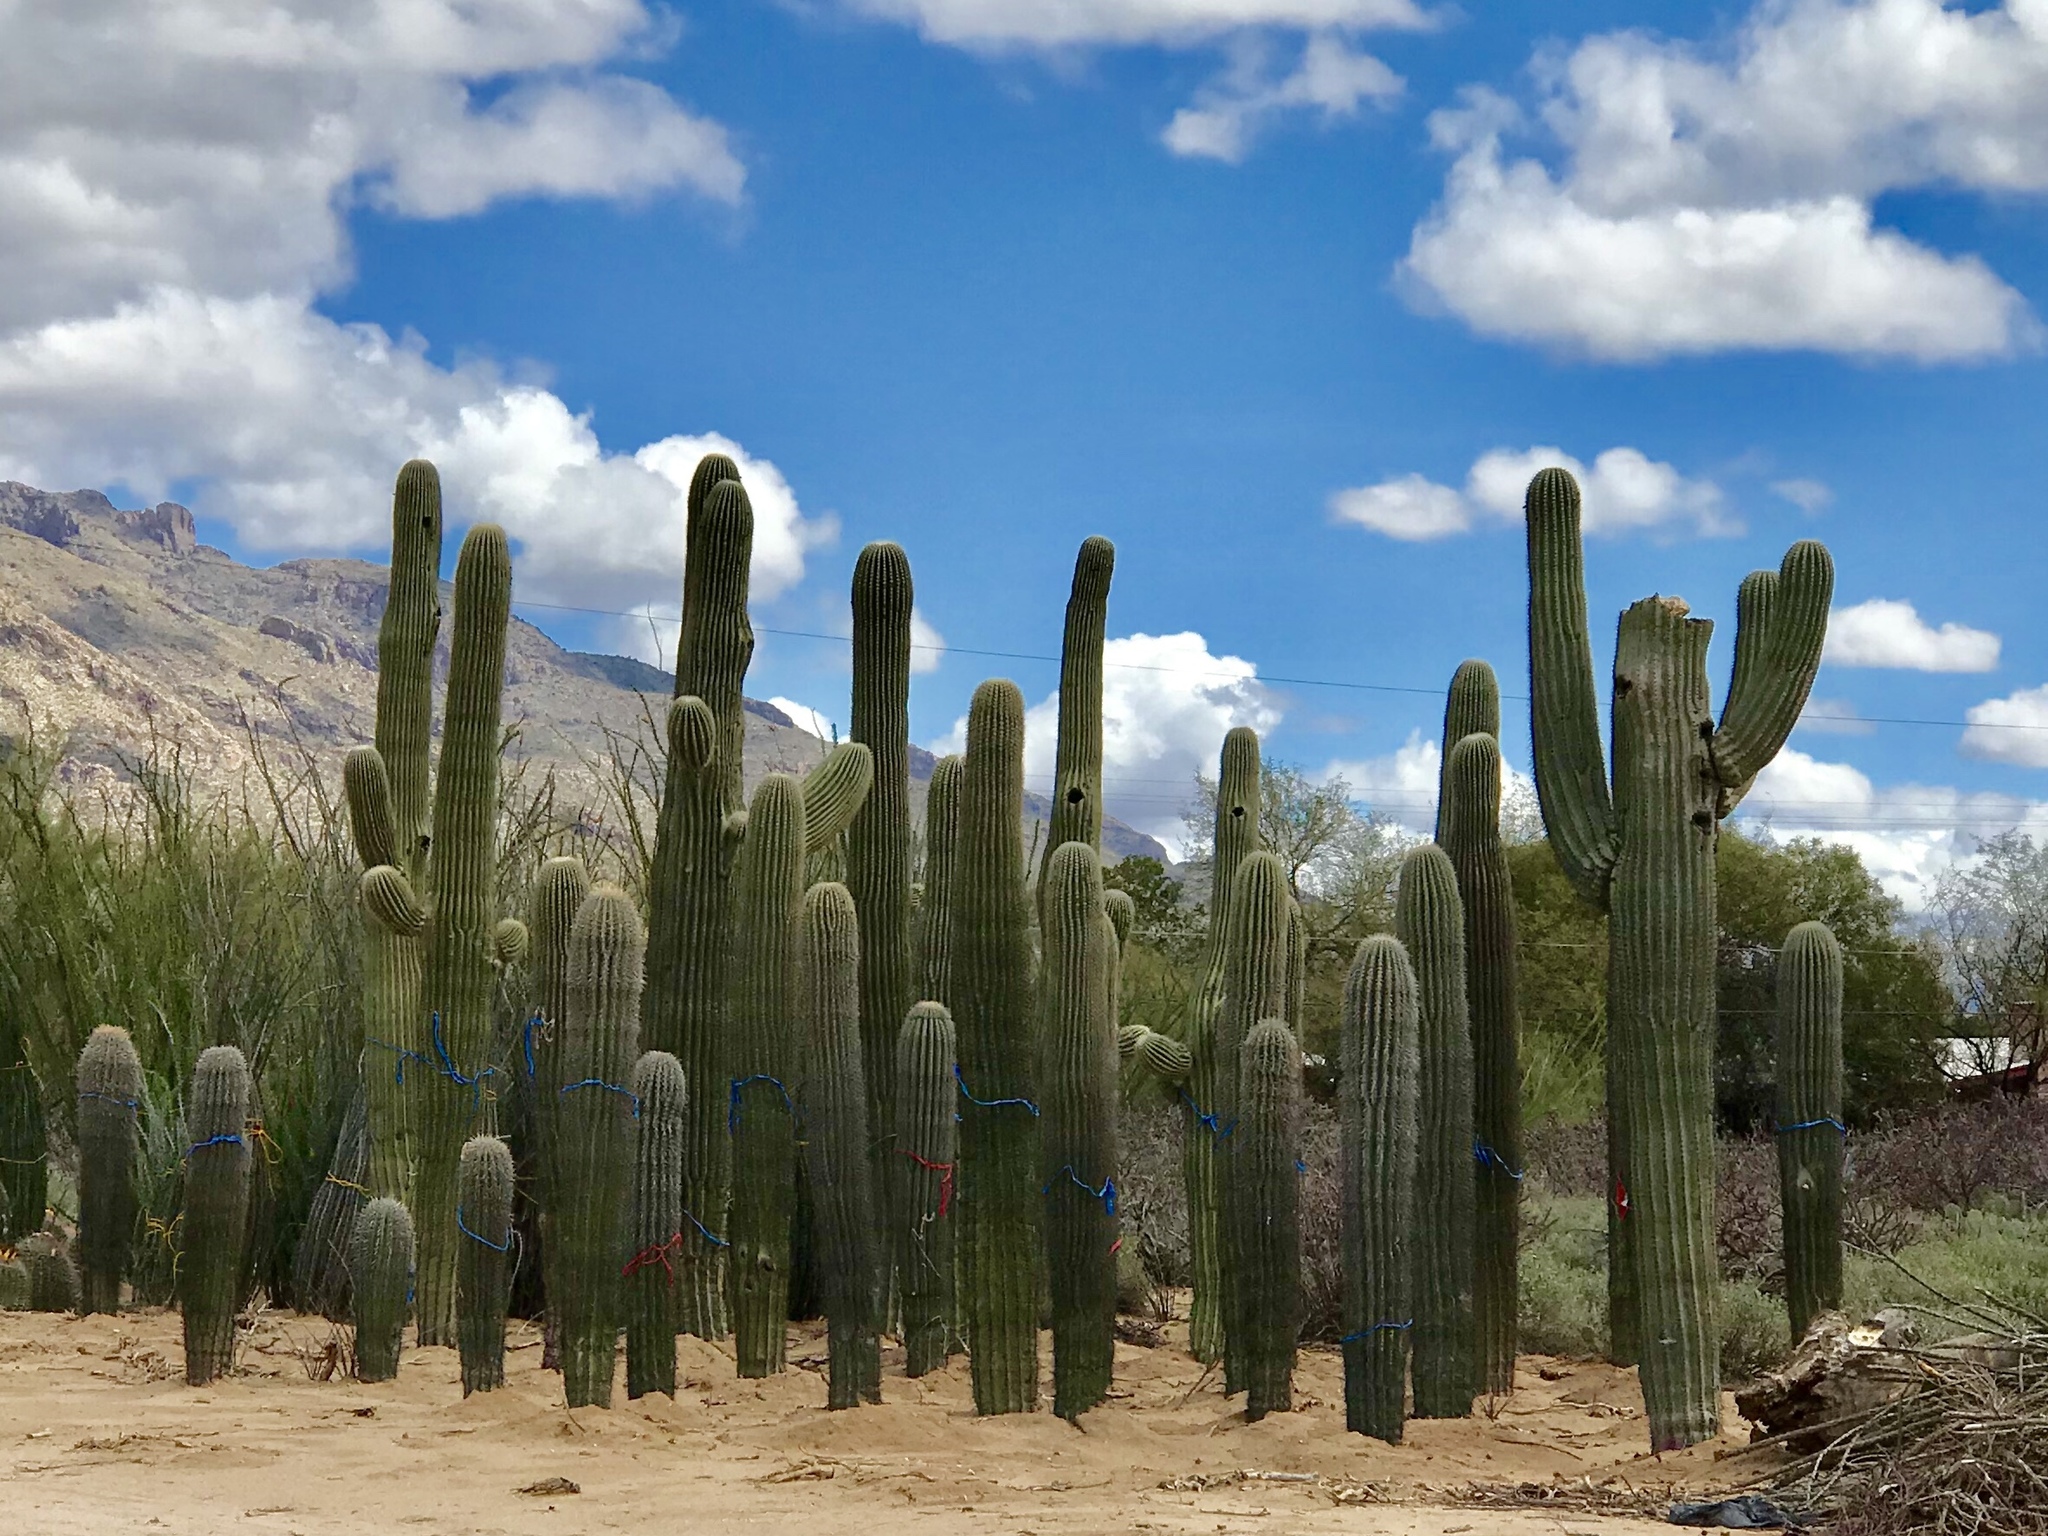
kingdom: Plantae
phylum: Tracheophyta
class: Magnoliopsida
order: Caryophyllales
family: Cactaceae
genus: Carnegiea
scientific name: Carnegiea gigantea
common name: Saguaro
